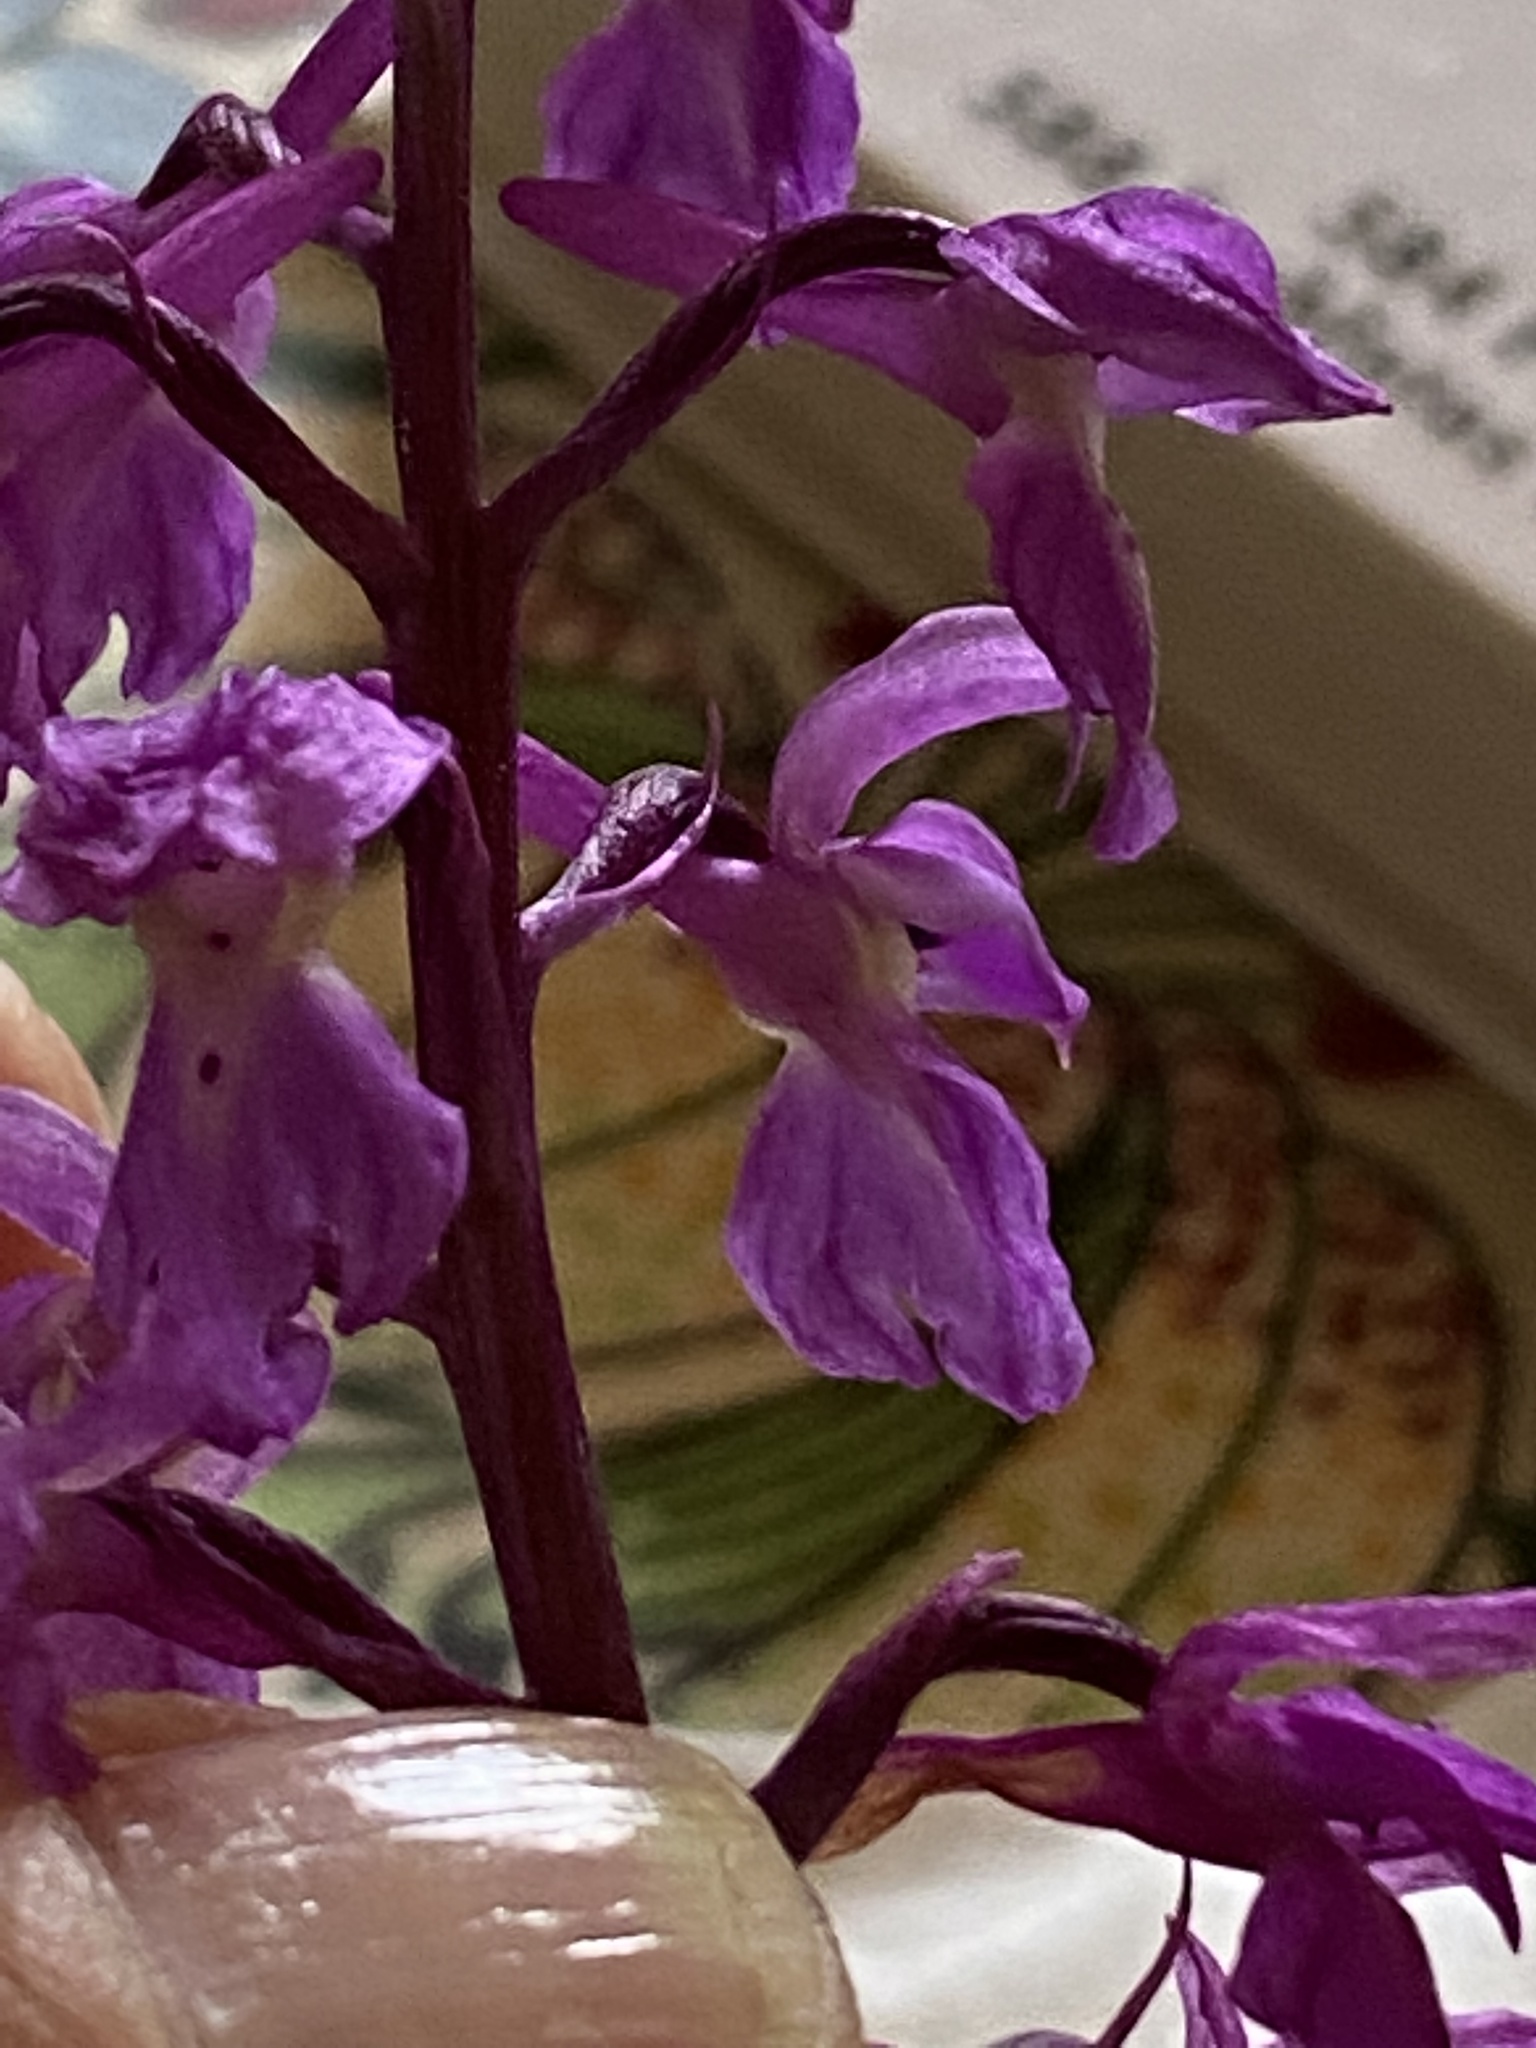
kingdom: Plantae
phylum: Tracheophyta
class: Liliopsida
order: Asparagales
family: Orchidaceae
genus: Orchis
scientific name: Orchis mascula
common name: Early-purple orchid
